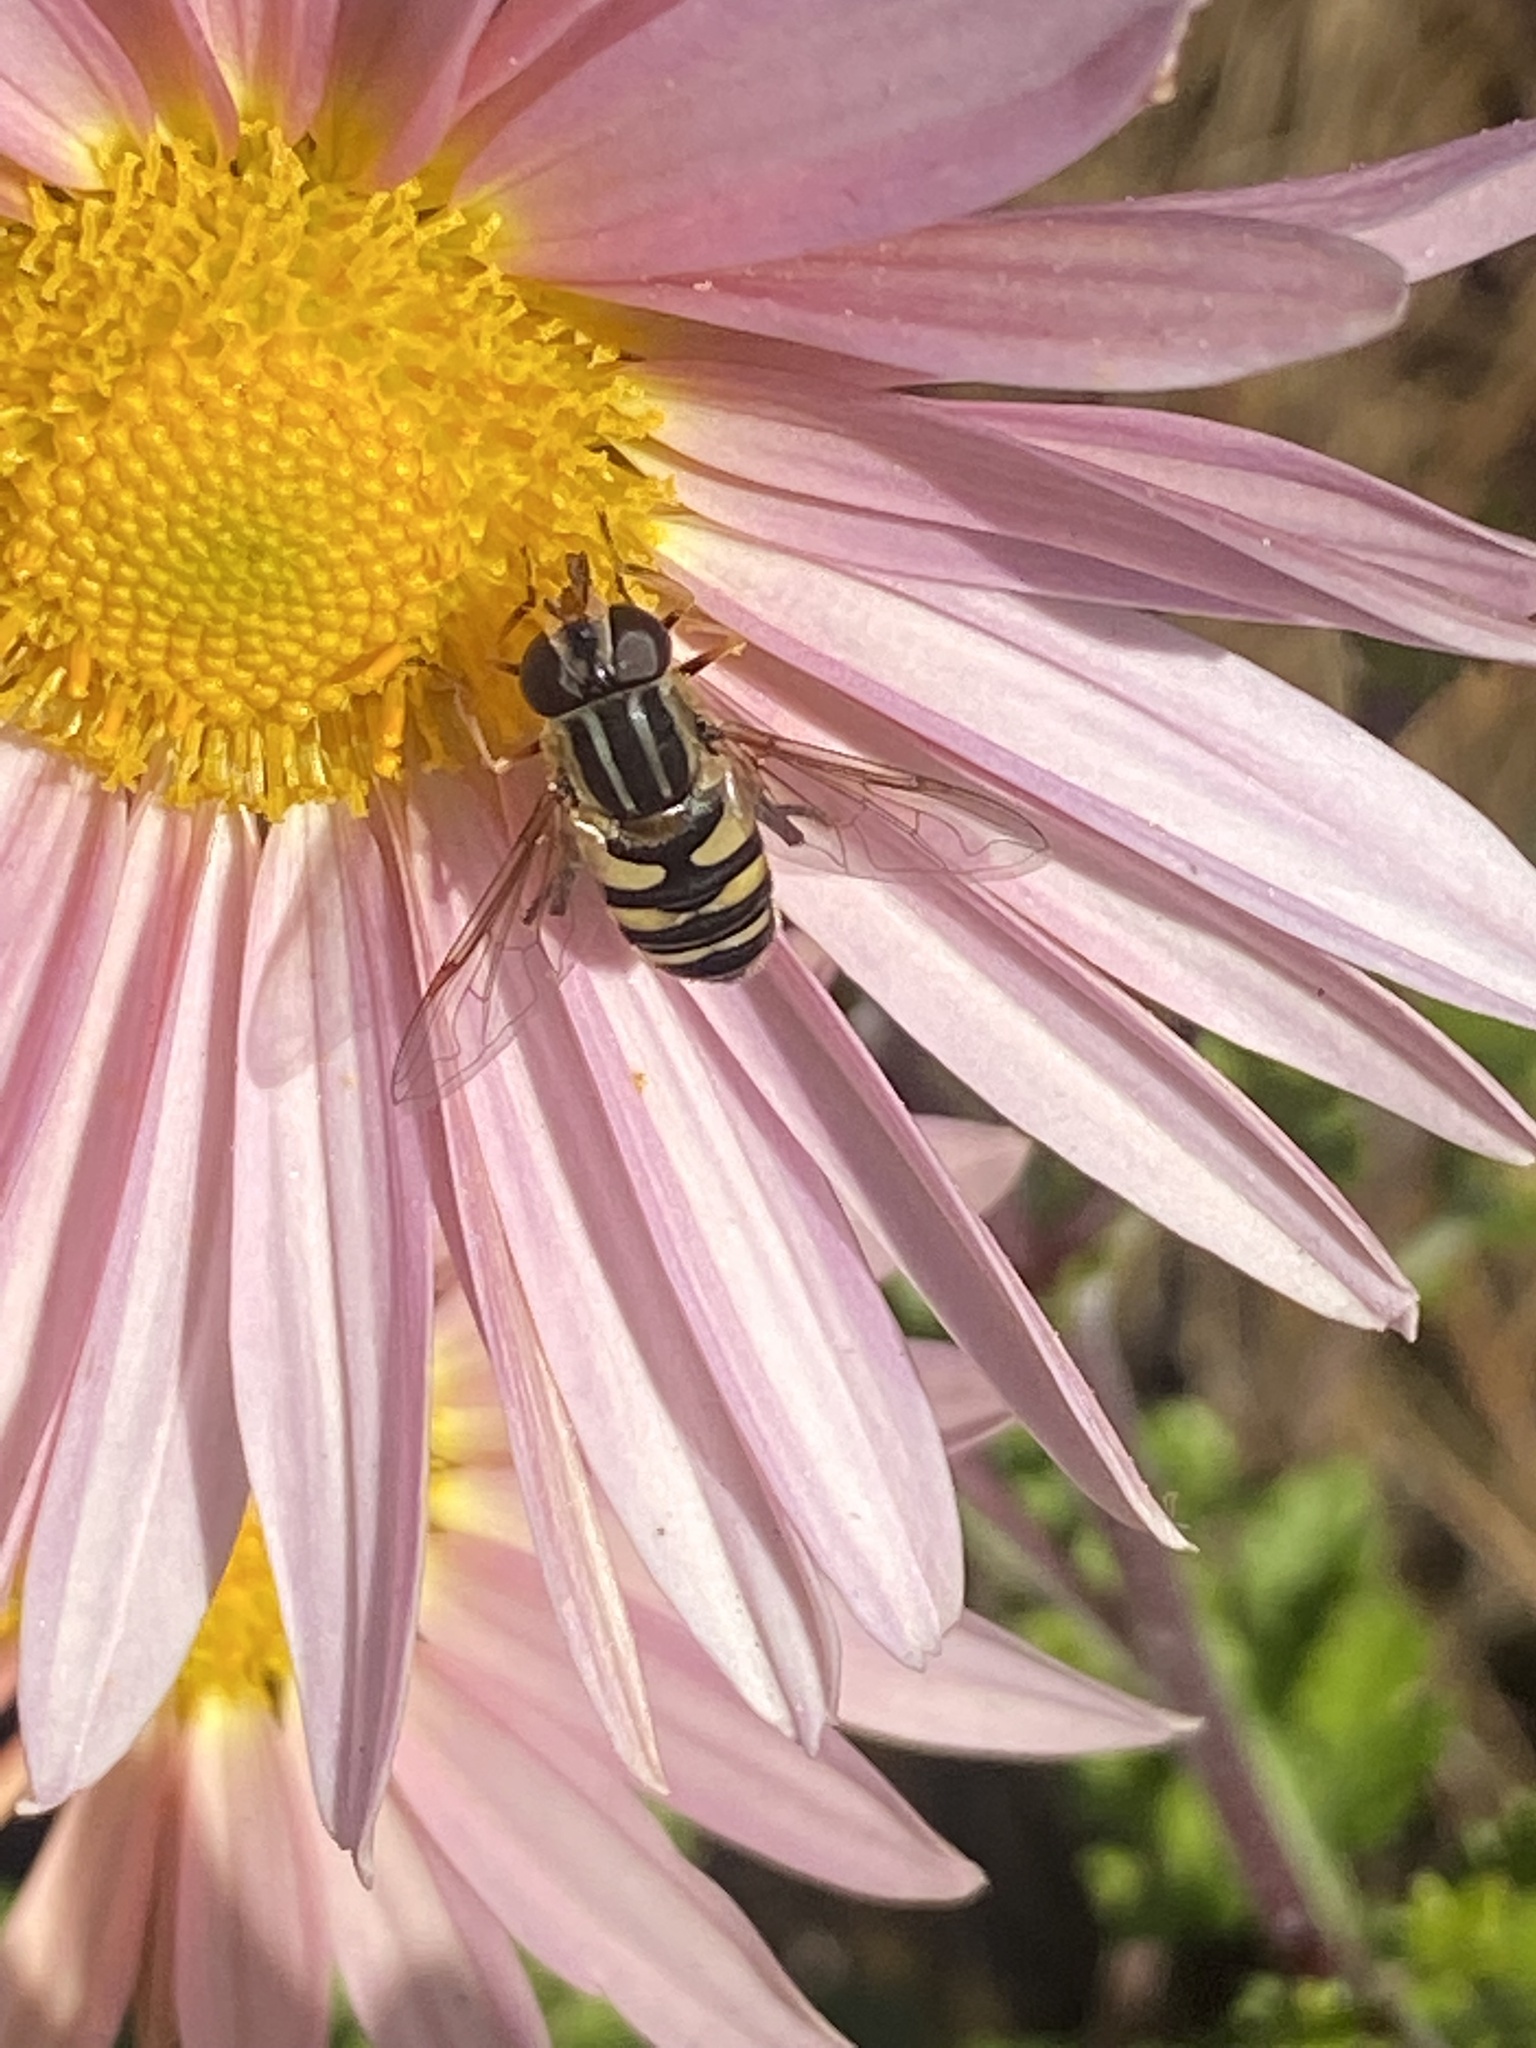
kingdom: Animalia
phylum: Arthropoda
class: Insecta
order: Diptera
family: Syrphidae
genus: Helophilus
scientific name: Helophilus fasciatus
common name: Narrow-headed marsh fly
